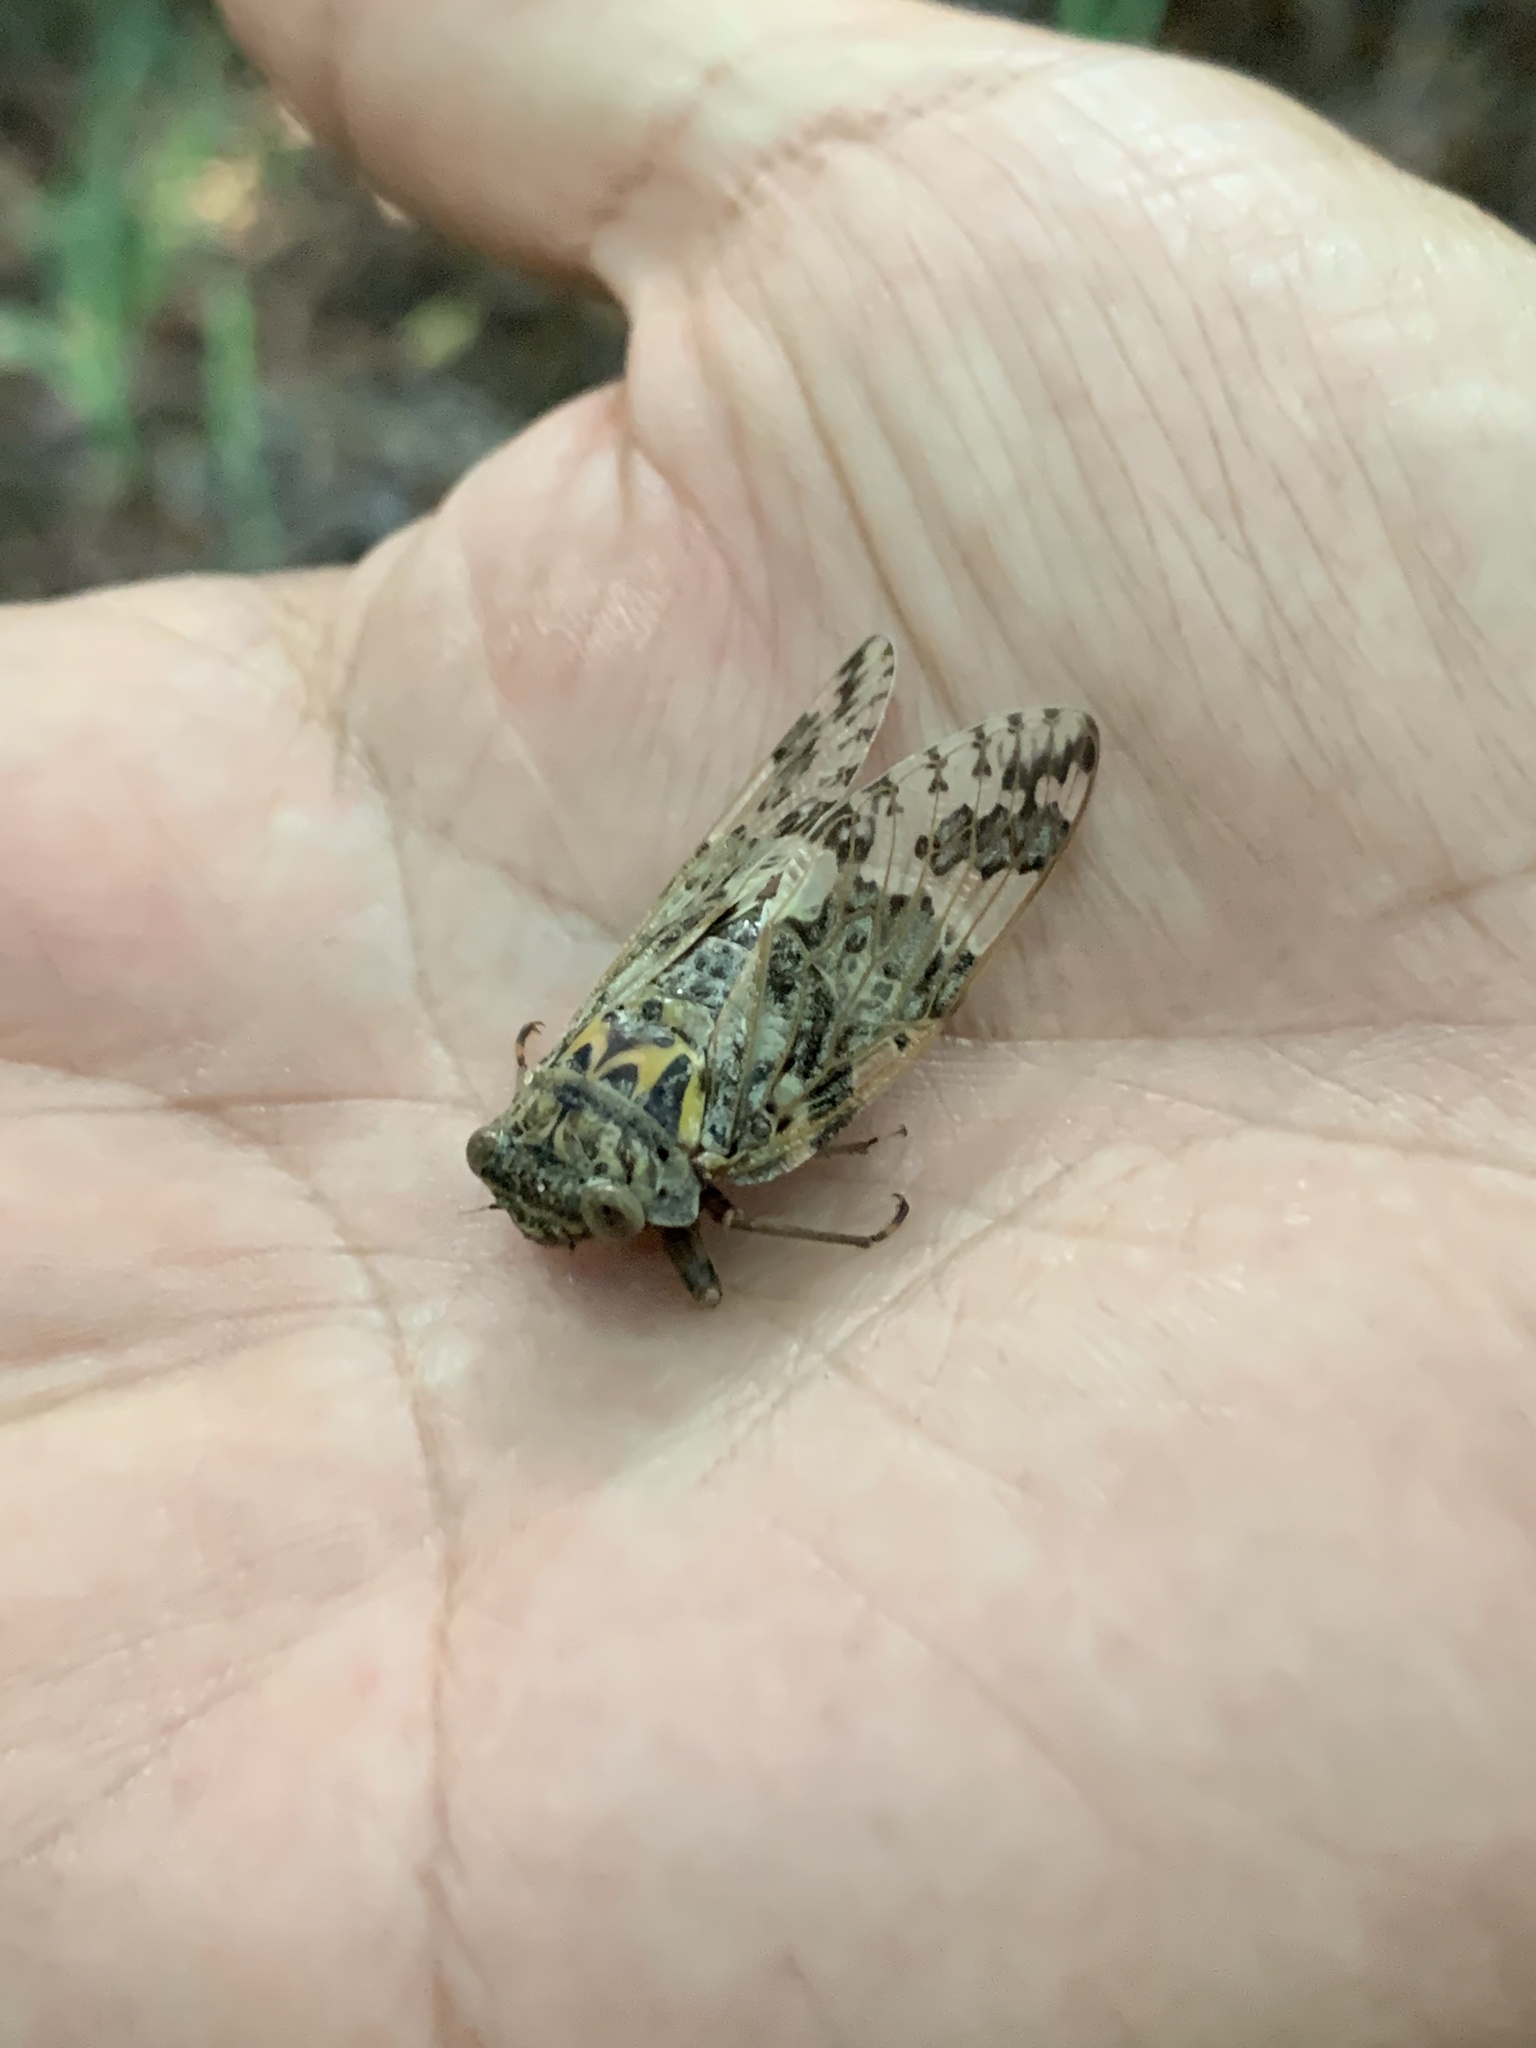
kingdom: Animalia
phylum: Arthropoda
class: Insecta
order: Hemiptera
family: Cicadidae
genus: Platypleura
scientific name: Platypleura kaempferi
